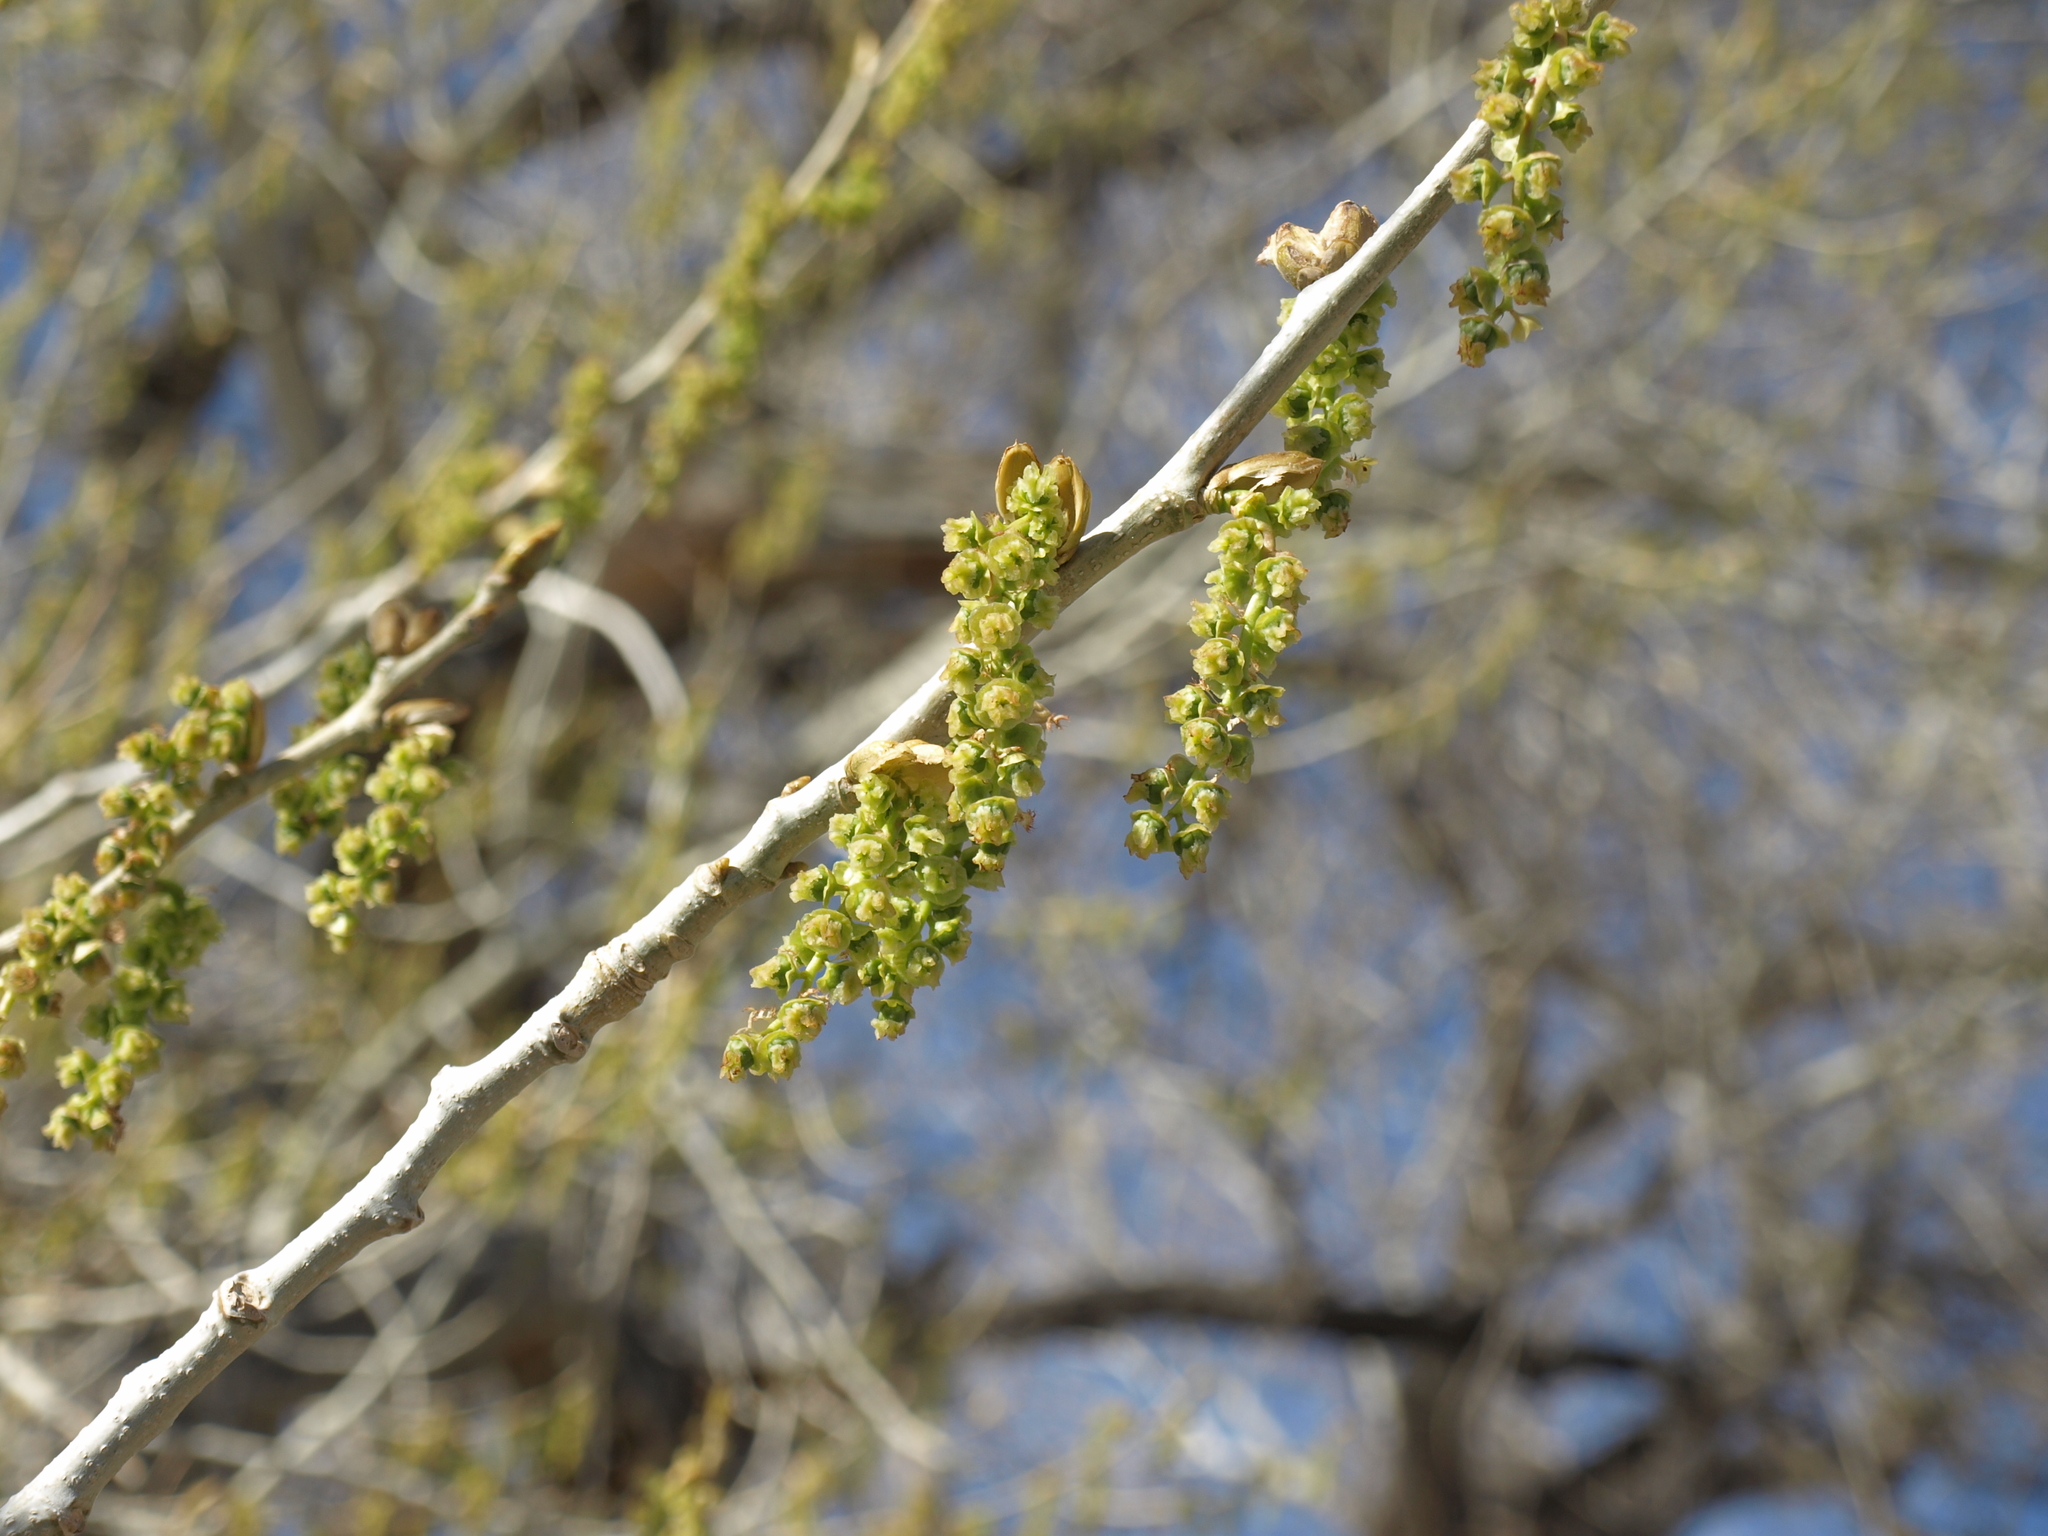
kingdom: Plantae
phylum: Tracheophyta
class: Magnoliopsida
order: Malpighiales
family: Salicaceae
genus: Populus
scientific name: Populus fremontii
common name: Fremont's cottonwood
